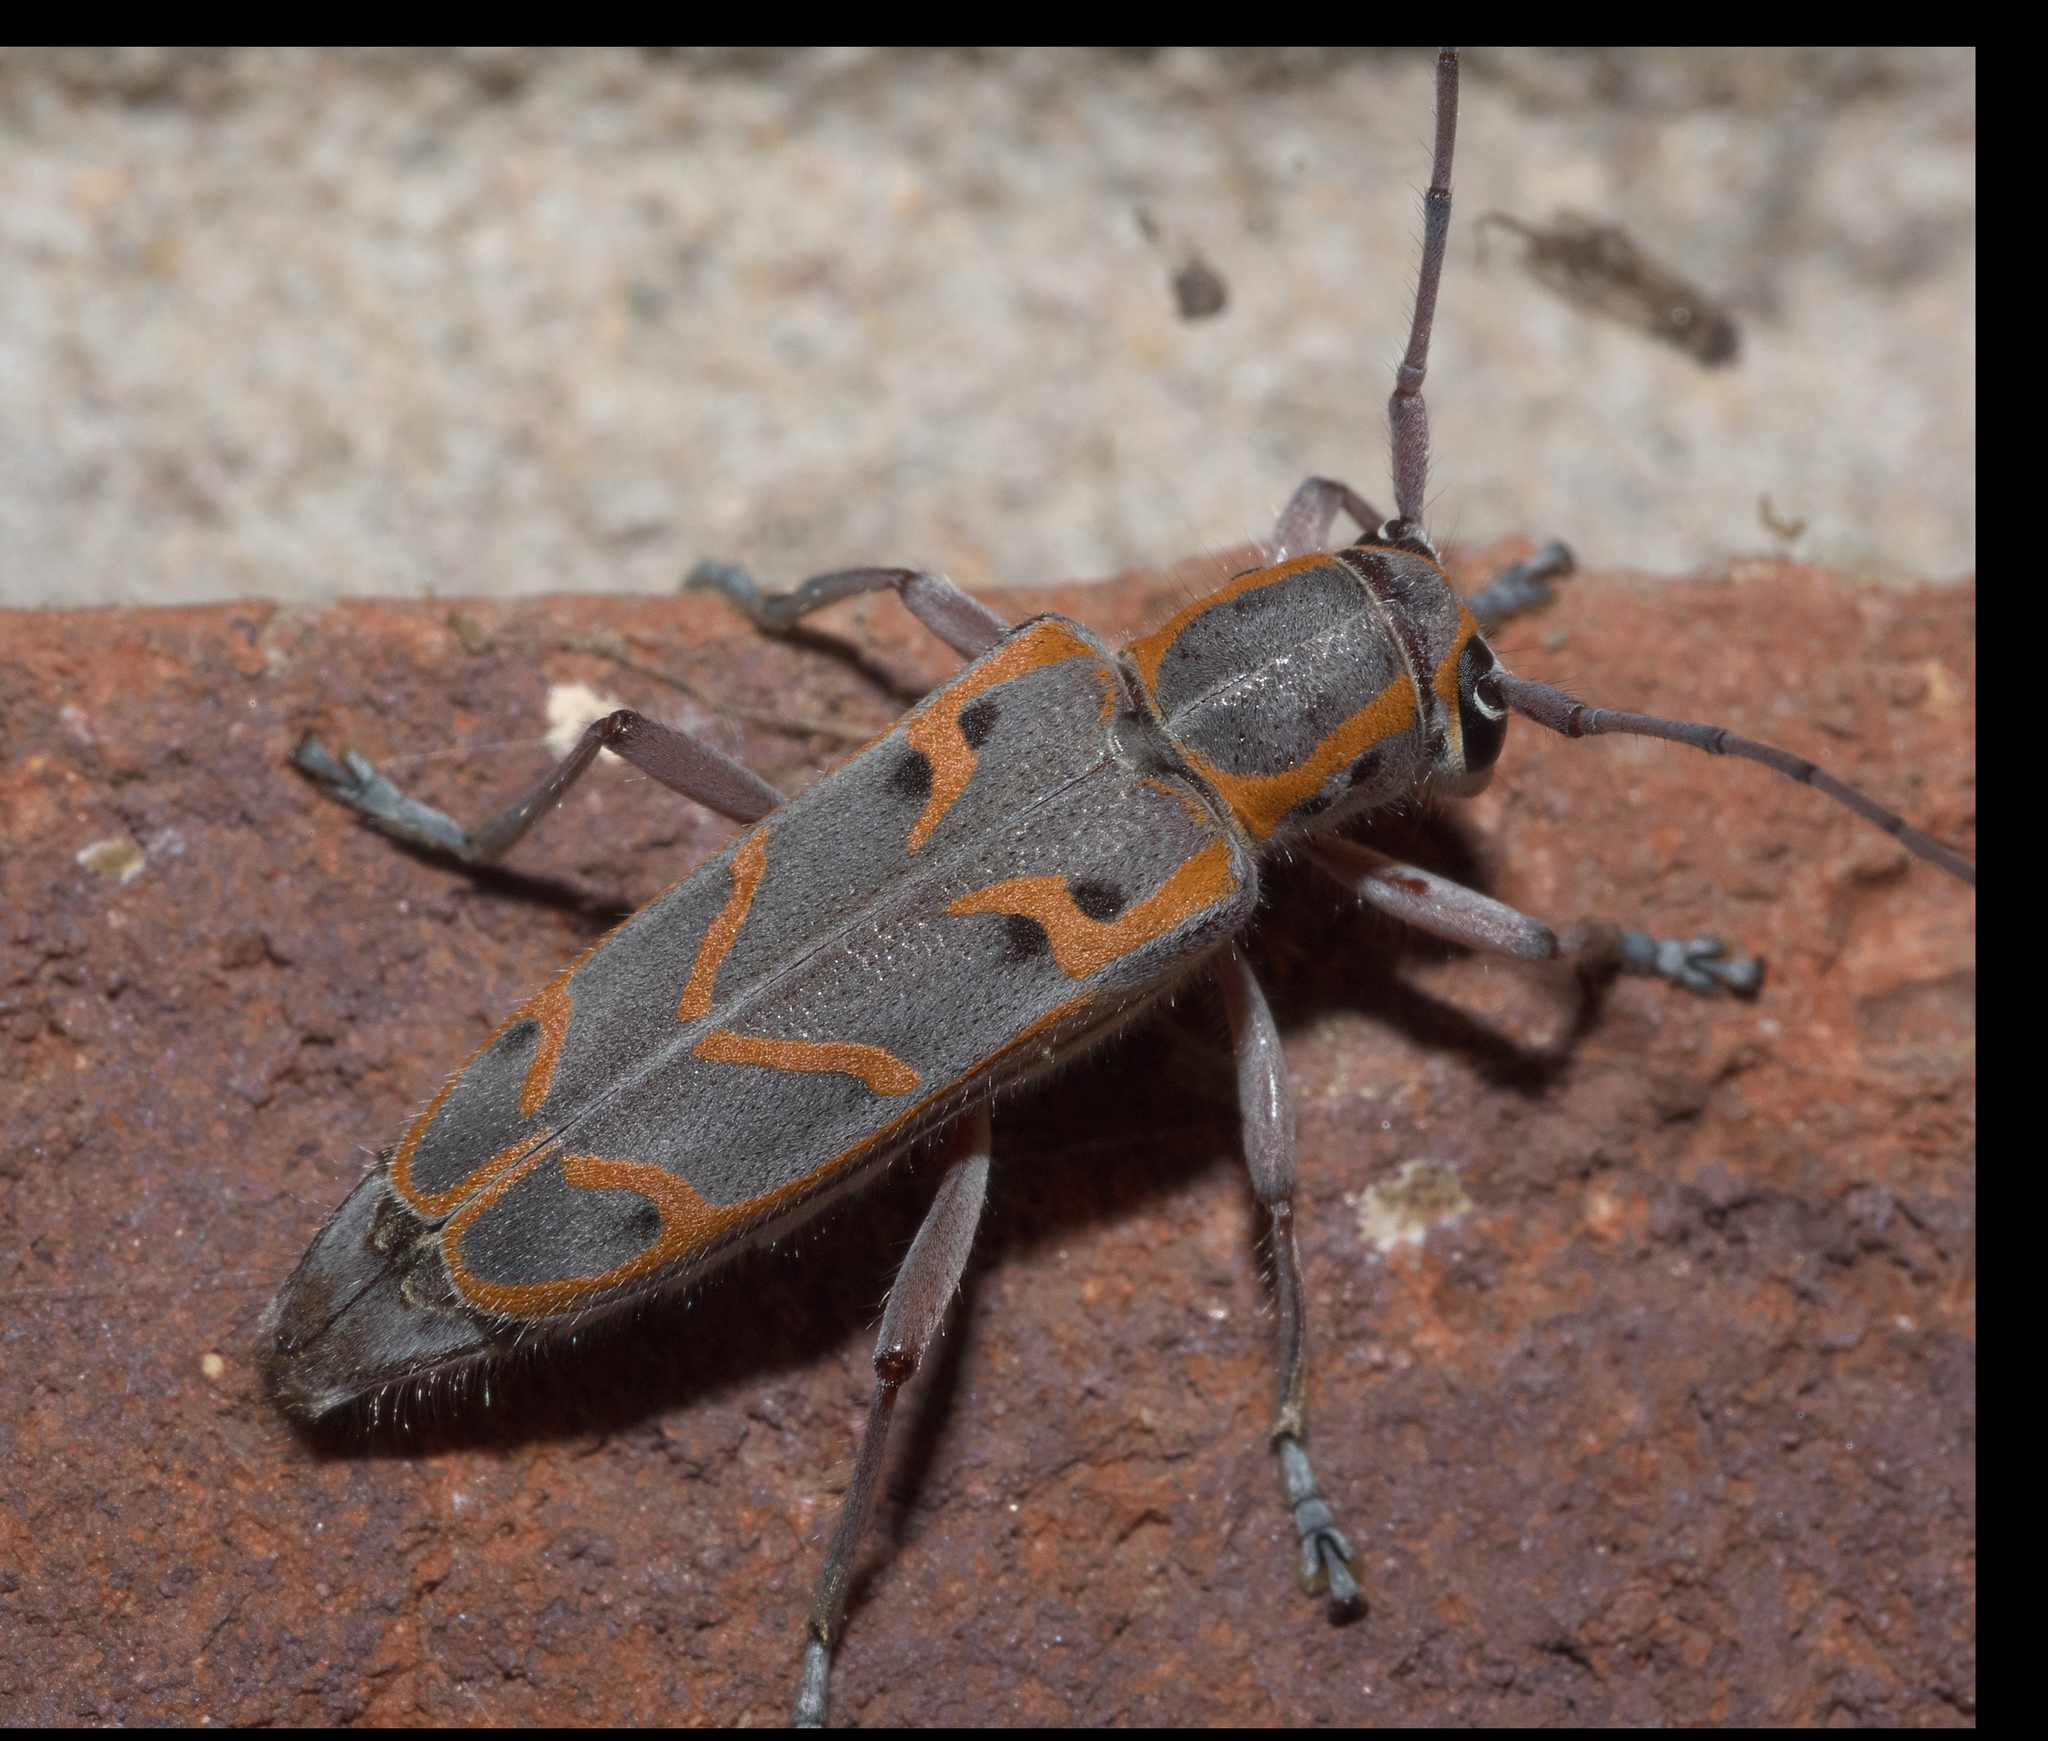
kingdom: Animalia
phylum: Arthropoda
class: Insecta
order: Coleoptera
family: Cerambycidae
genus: Saperda
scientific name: Saperda tridentata
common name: Elm borer
